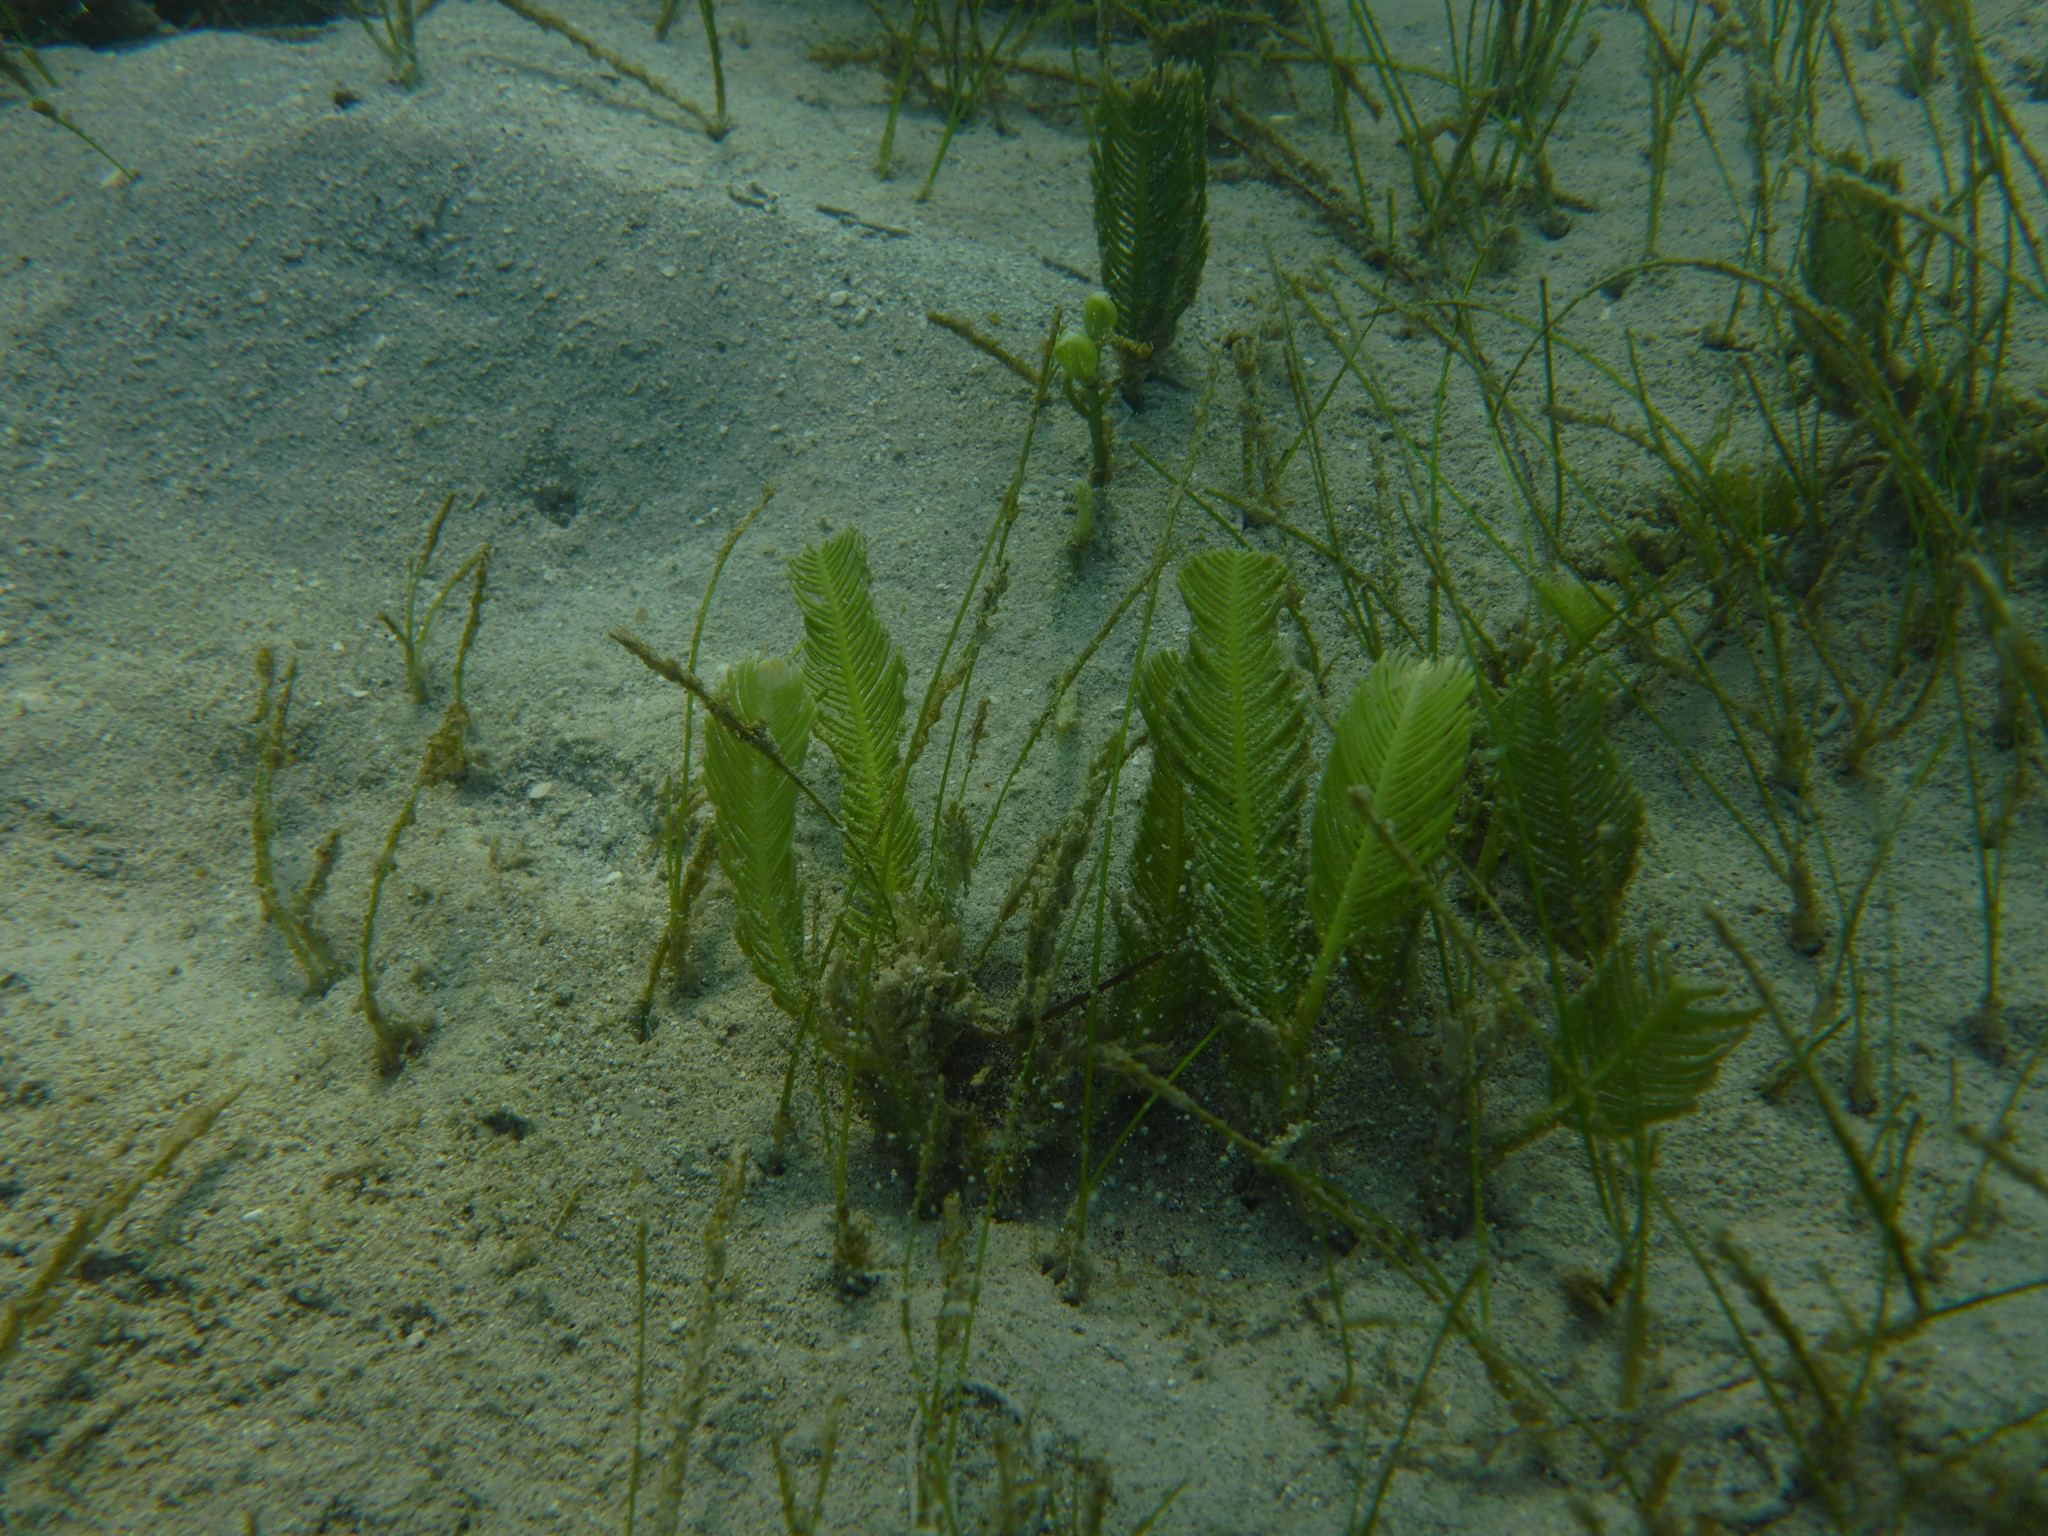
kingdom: Plantae
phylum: Chlorophyta
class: Ulvophyceae
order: Bryopsidales
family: Caulerpaceae
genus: Caulerpa
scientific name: Caulerpa sertularioides
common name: Green feather algae
